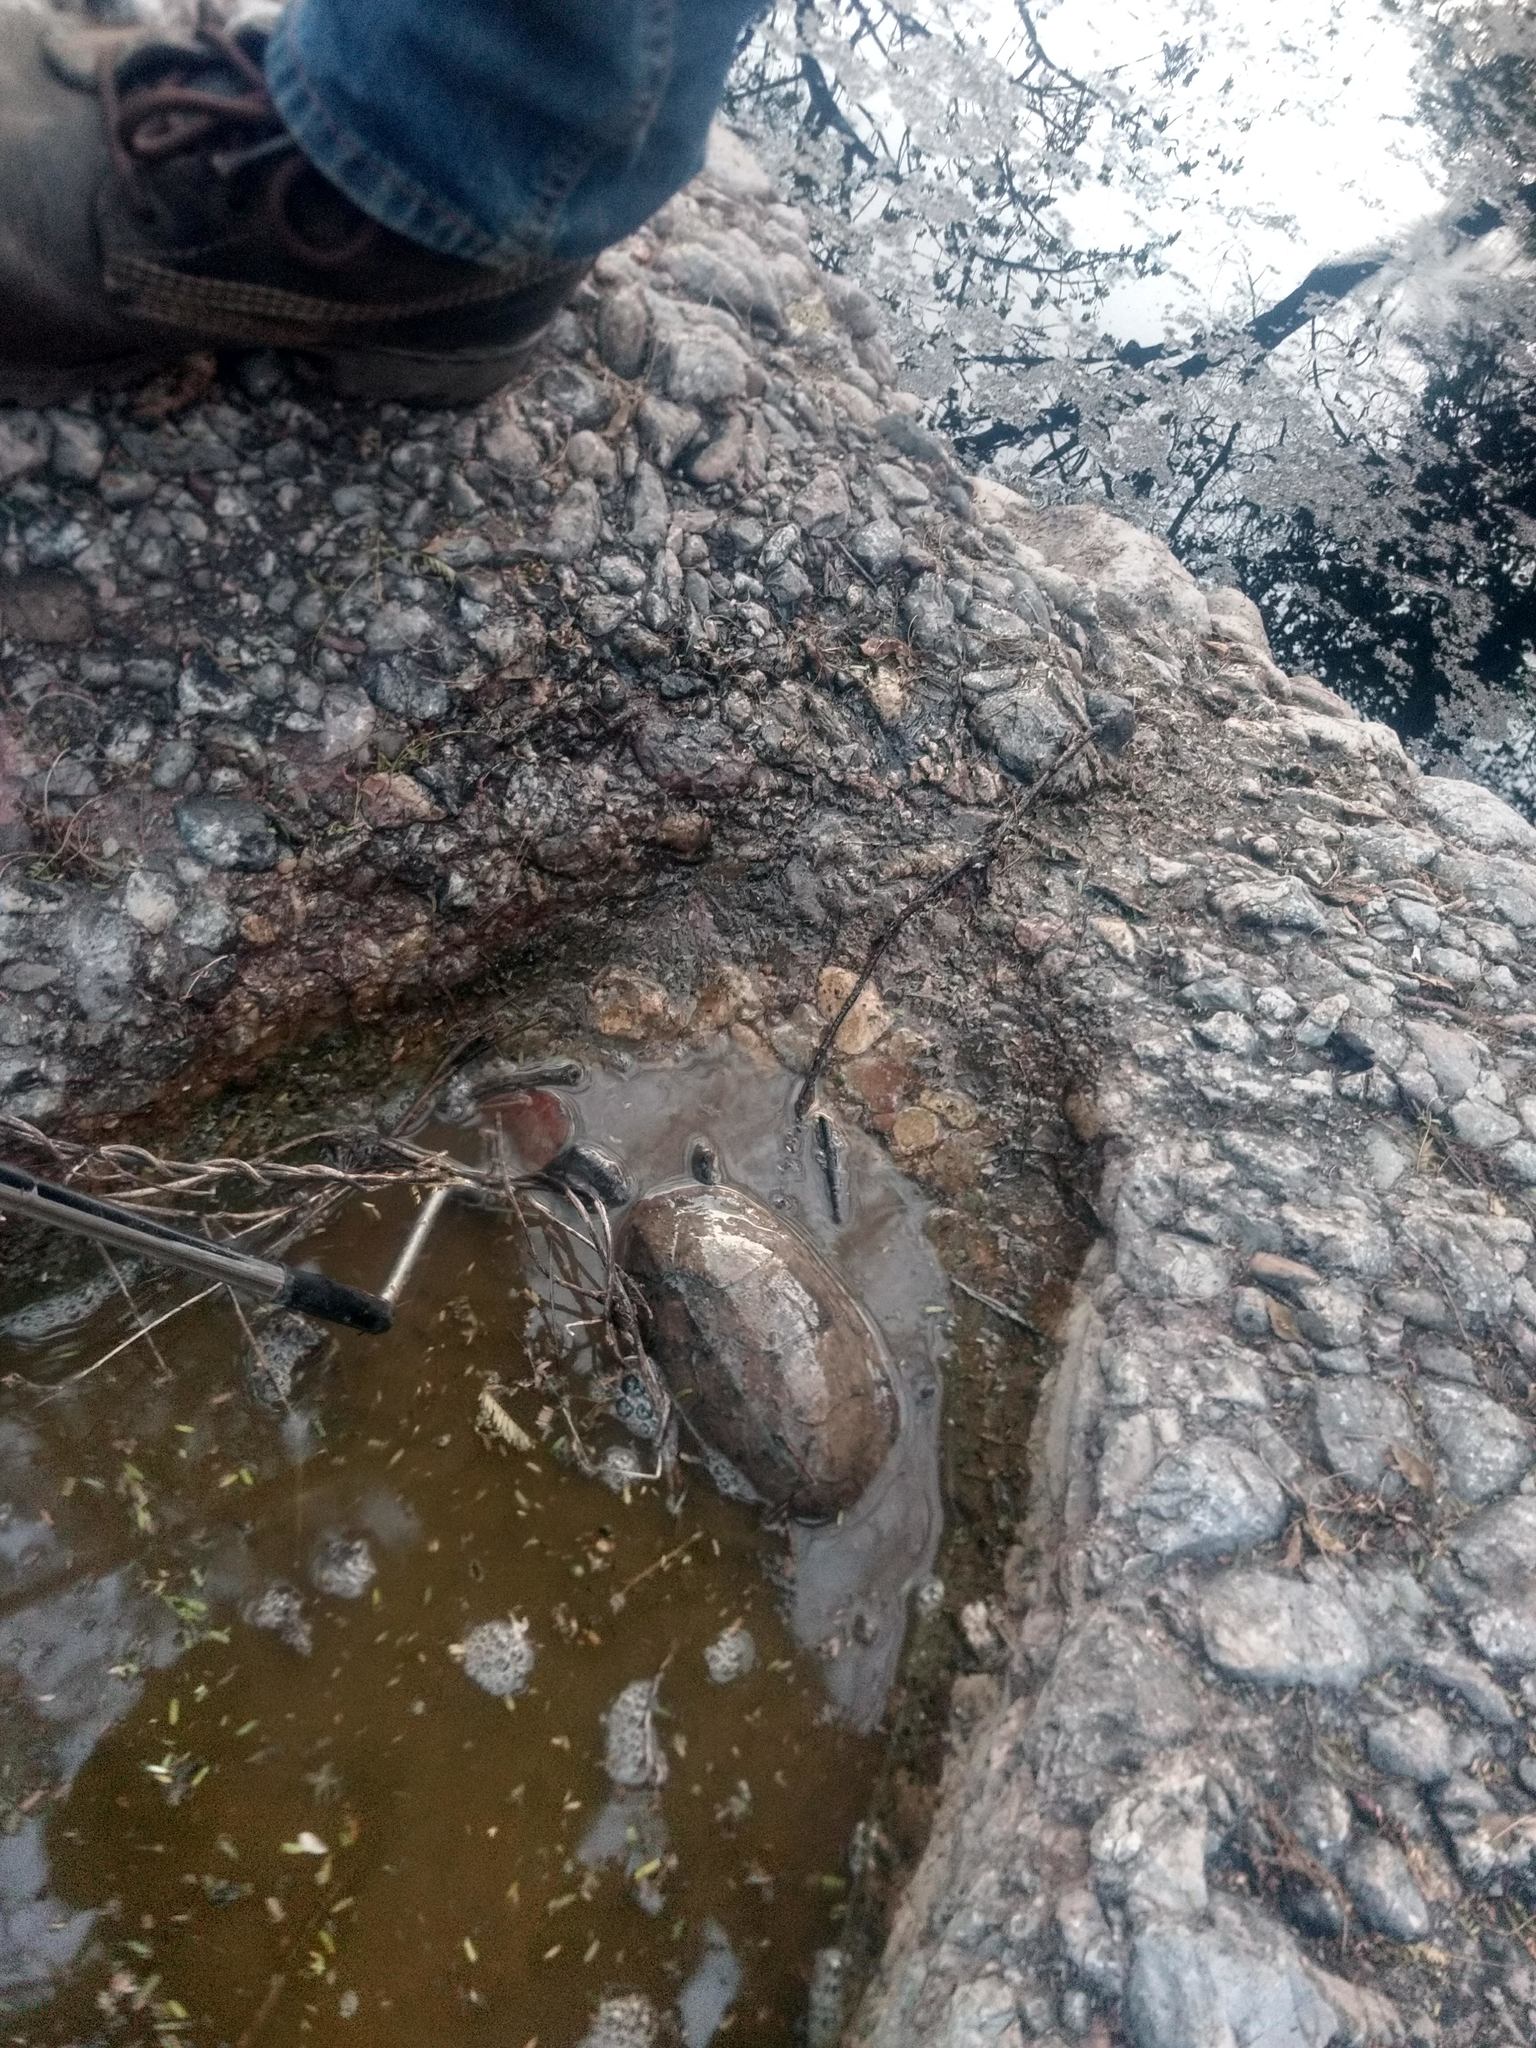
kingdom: Animalia
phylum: Chordata
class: Testudines
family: Kinosternidae
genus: Kinosternon
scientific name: Kinosternon integrum
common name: Mexican mud turtle
